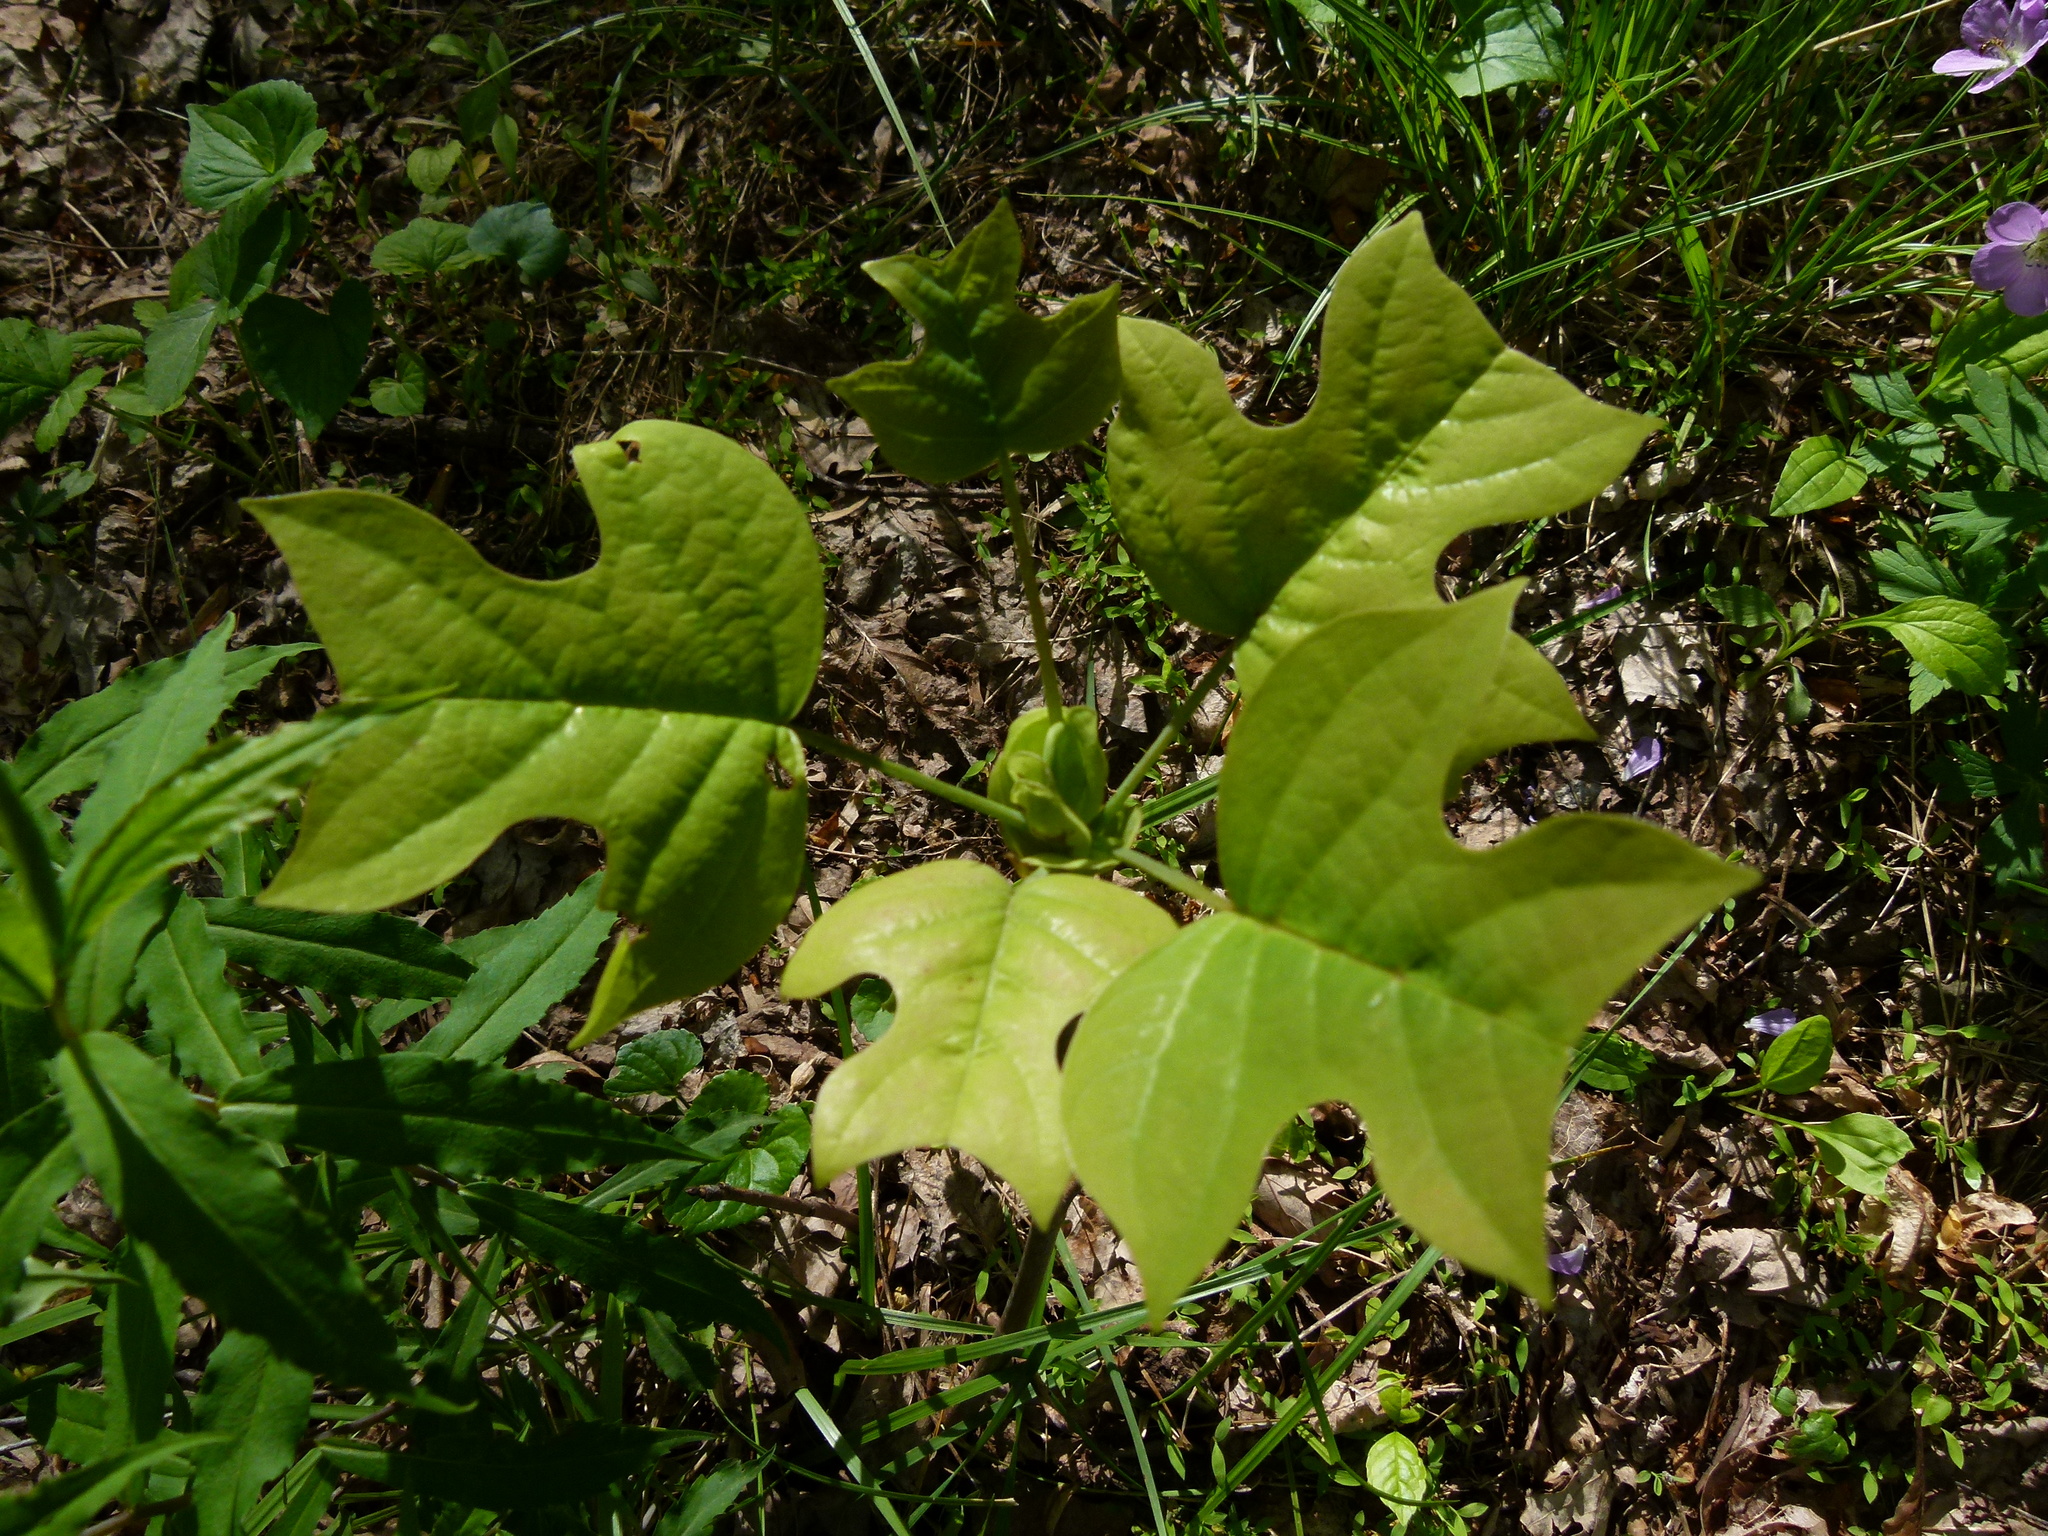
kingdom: Plantae
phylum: Tracheophyta
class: Magnoliopsida
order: Magnoliales
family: Magnoliaceae
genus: Liriodendron
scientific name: Liriodendron tulipifera
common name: Tulip tree
